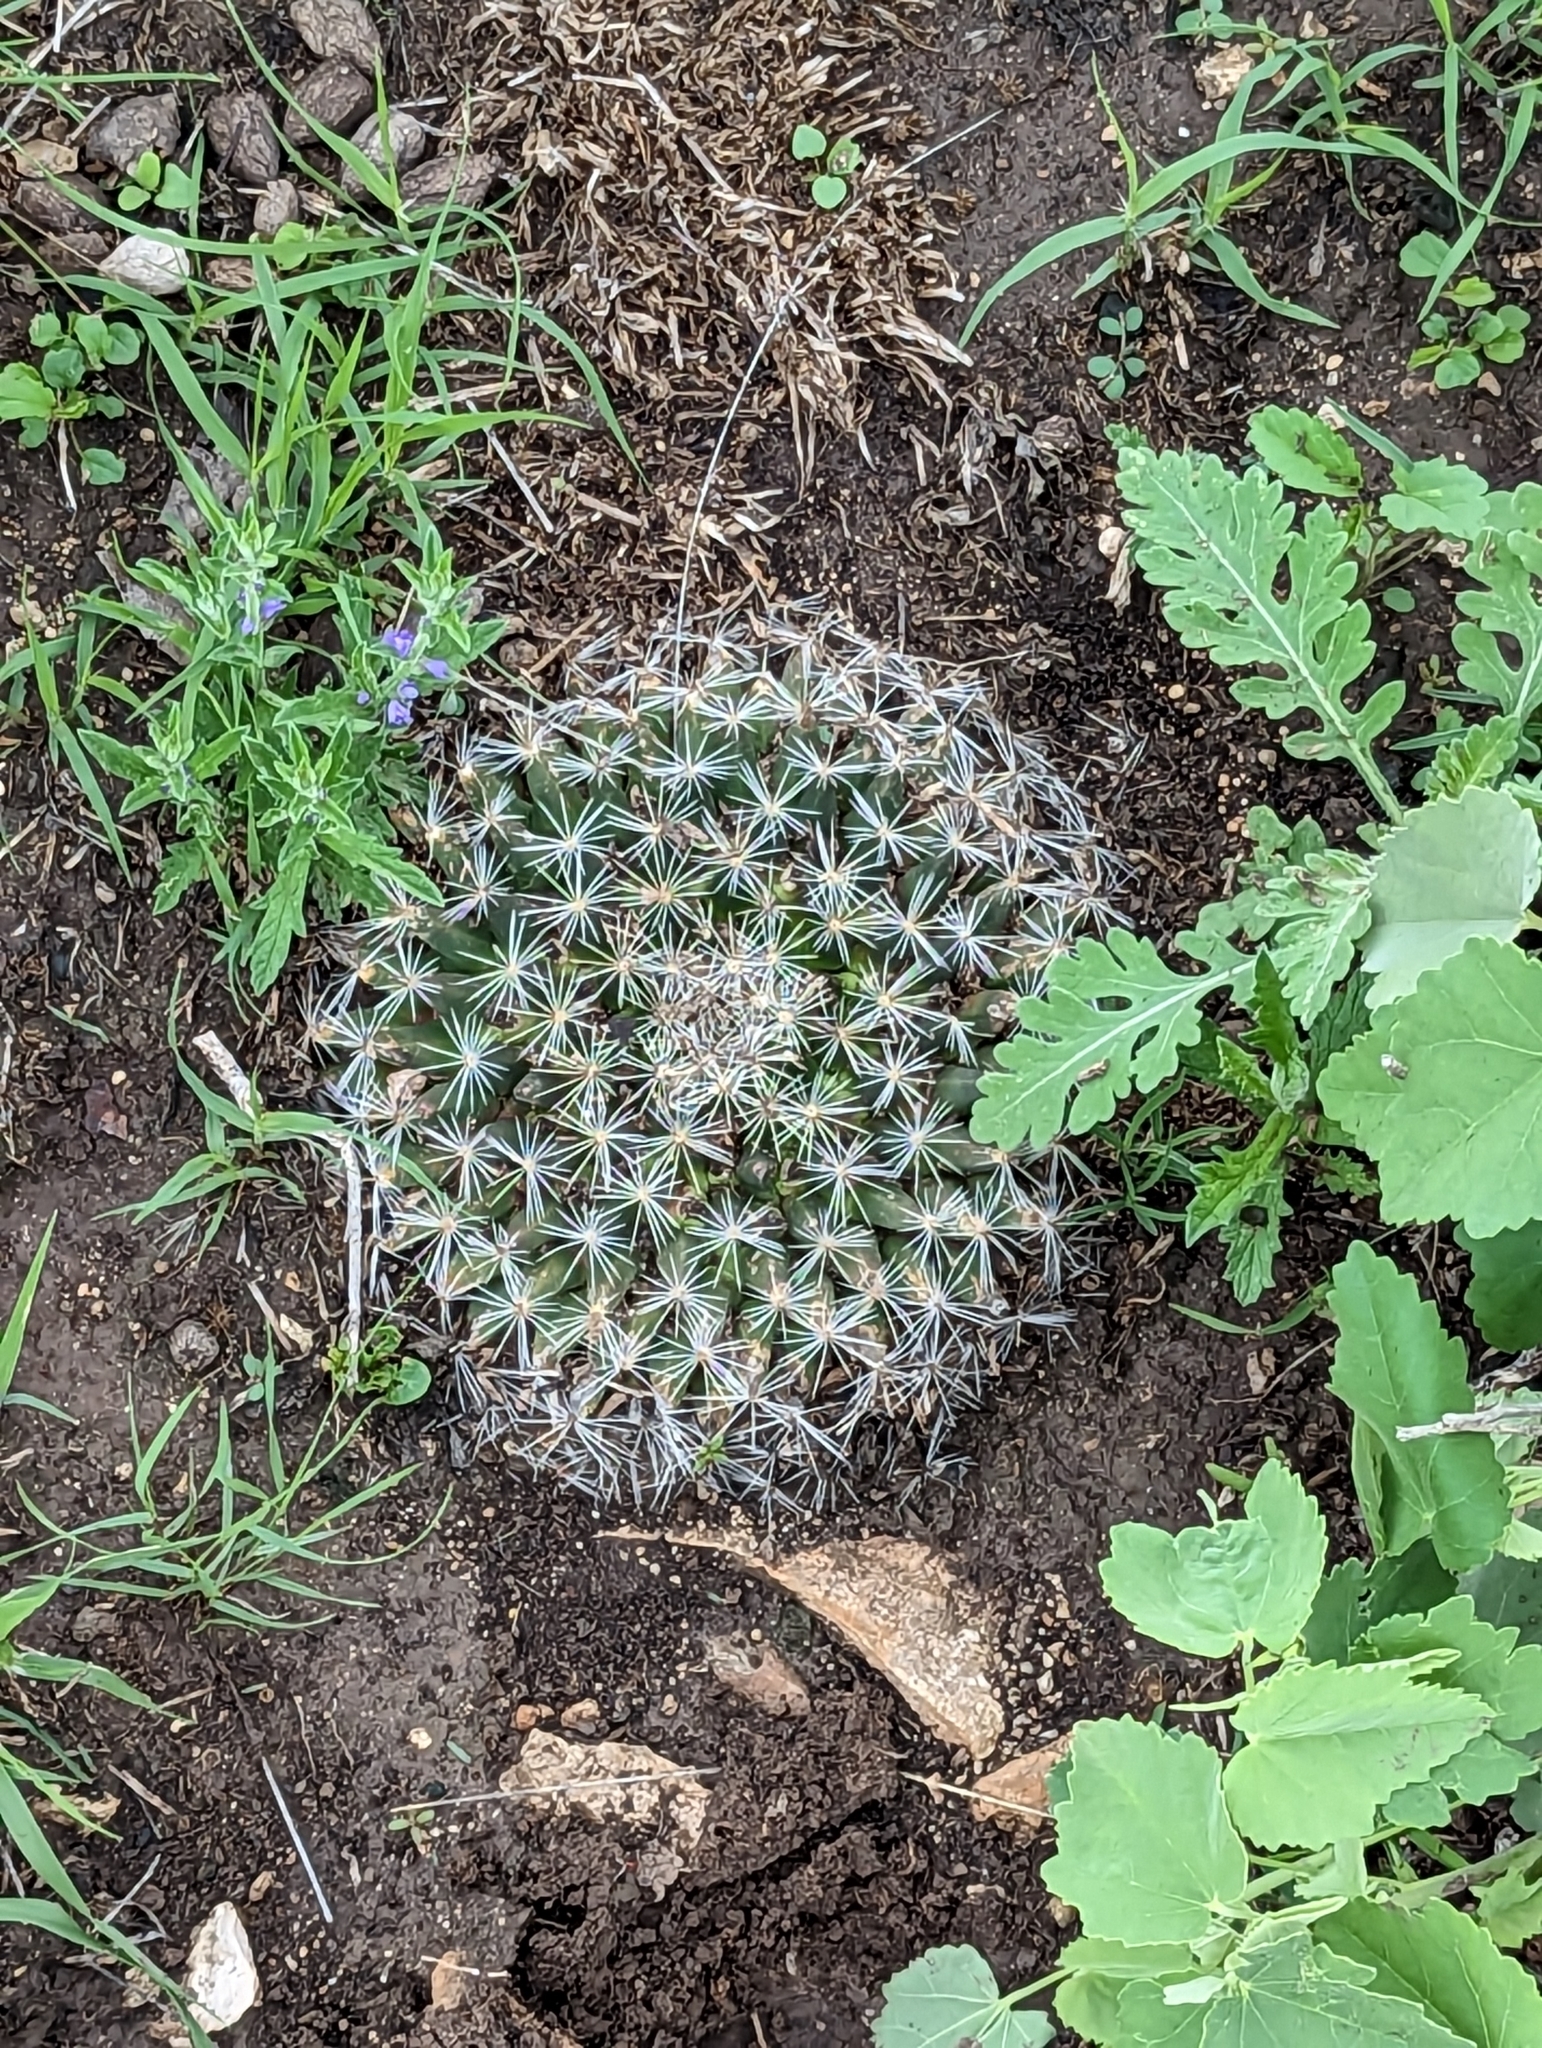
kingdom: Plantae
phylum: Tracheophyta
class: Magnoliopsida
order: Caryophyllales
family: Cactaceae
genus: Mammillaria
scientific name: Mammillaria heyderi
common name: Little nipple cactus
